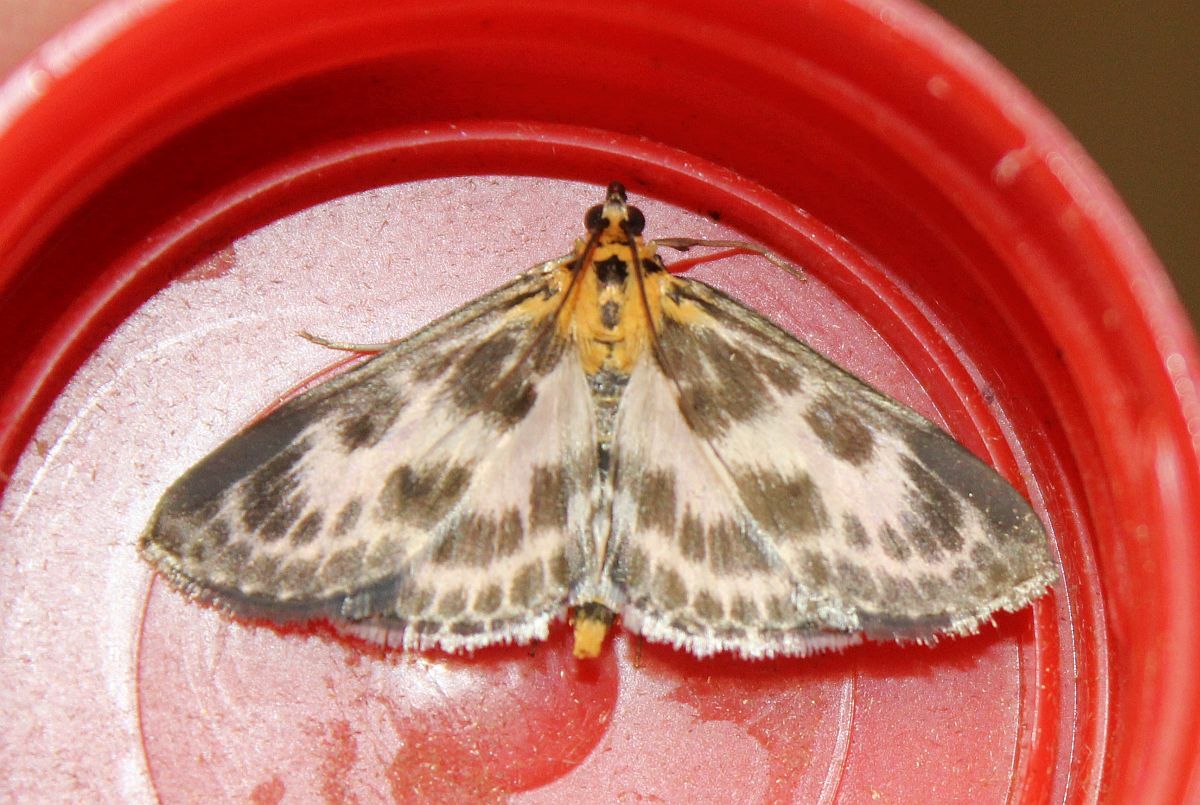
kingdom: Animalia
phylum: Arthropoda
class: Insecta
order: Lepidoptera
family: Crambidae
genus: Anania
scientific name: Anania hortulata
